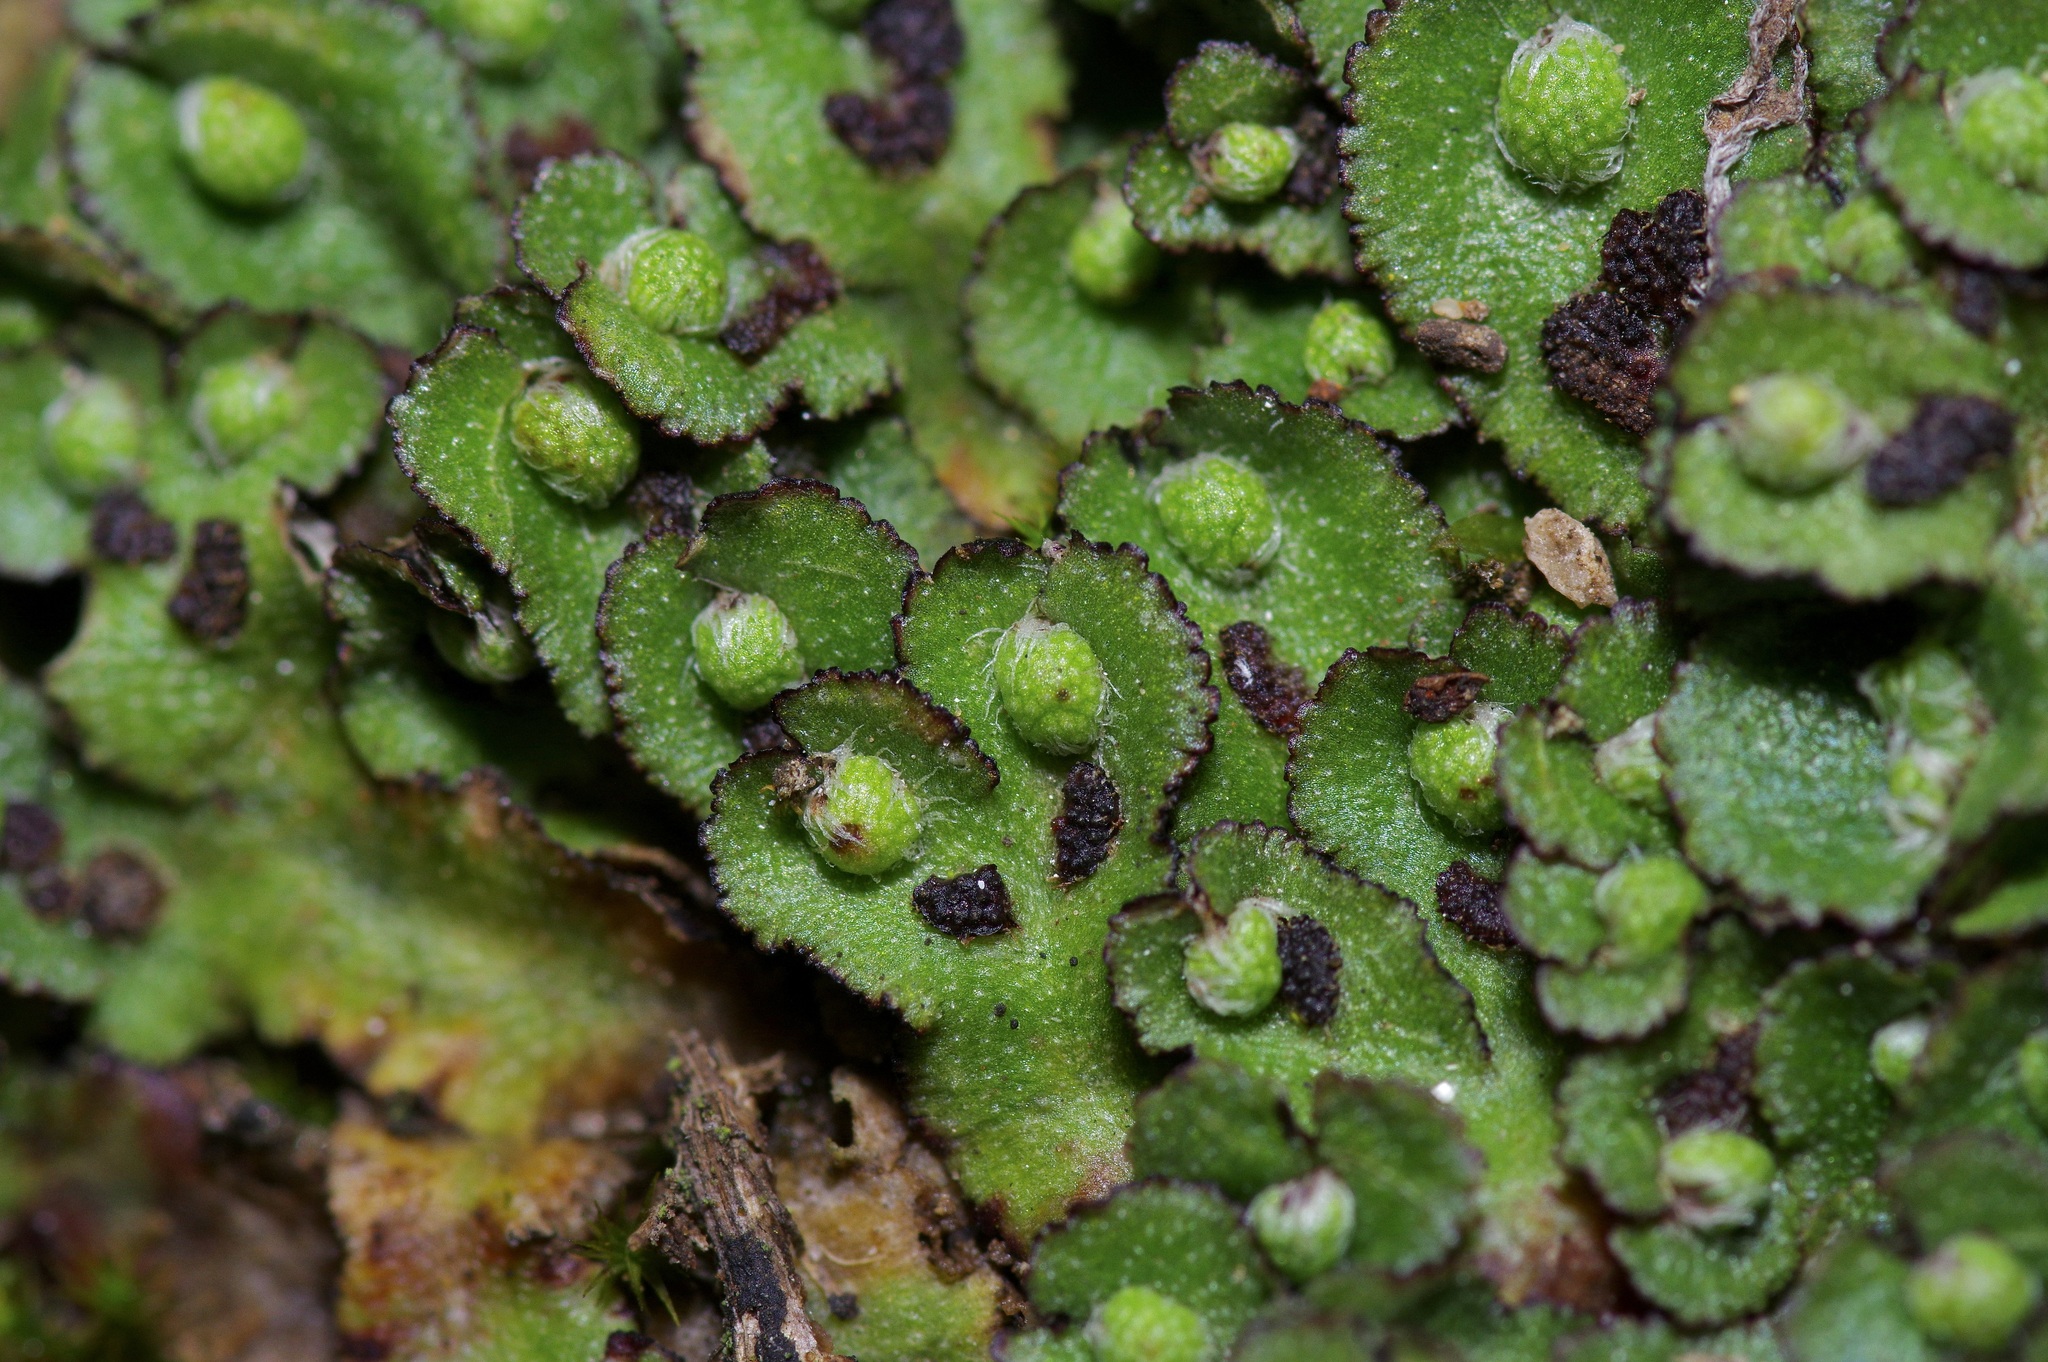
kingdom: Plantae
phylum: Marchantiophyta
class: Marchantiopsida
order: Marchantiales
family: Aytoniaceae
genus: Reboulia
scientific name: Reboulia hemisphaerica
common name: Purple-margined liverwort
